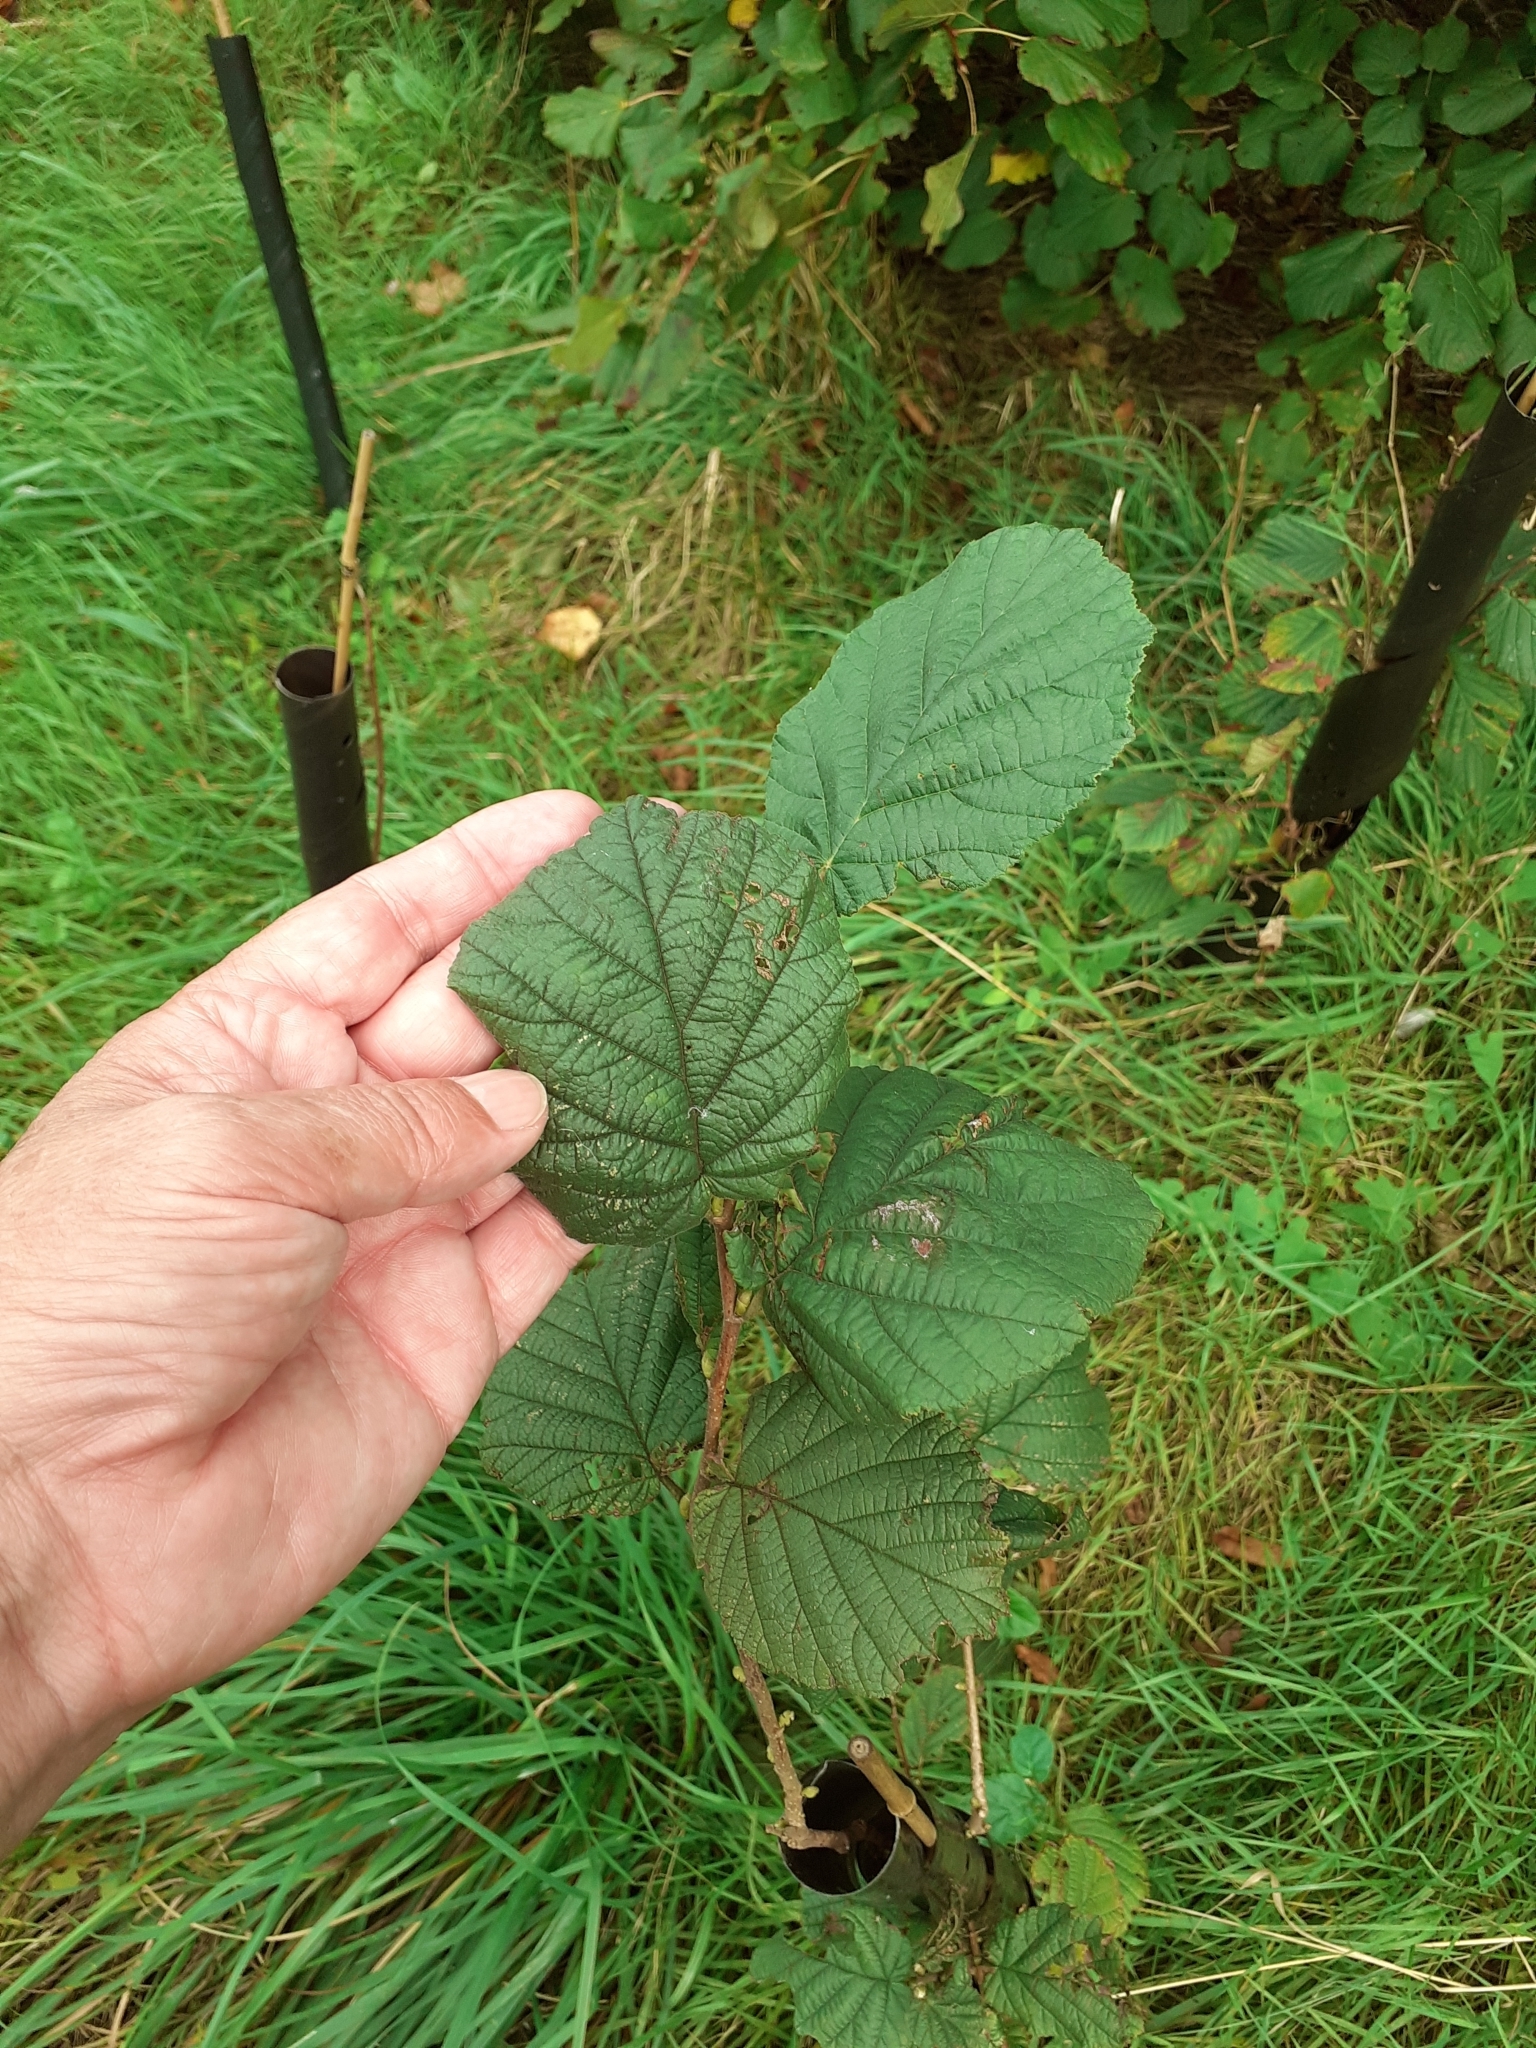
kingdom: Plantae
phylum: Tracheophyta
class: Magnoliopsida
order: Fagales
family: Betulaceae
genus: Corylus
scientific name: Corylus avellana
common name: European hazel
